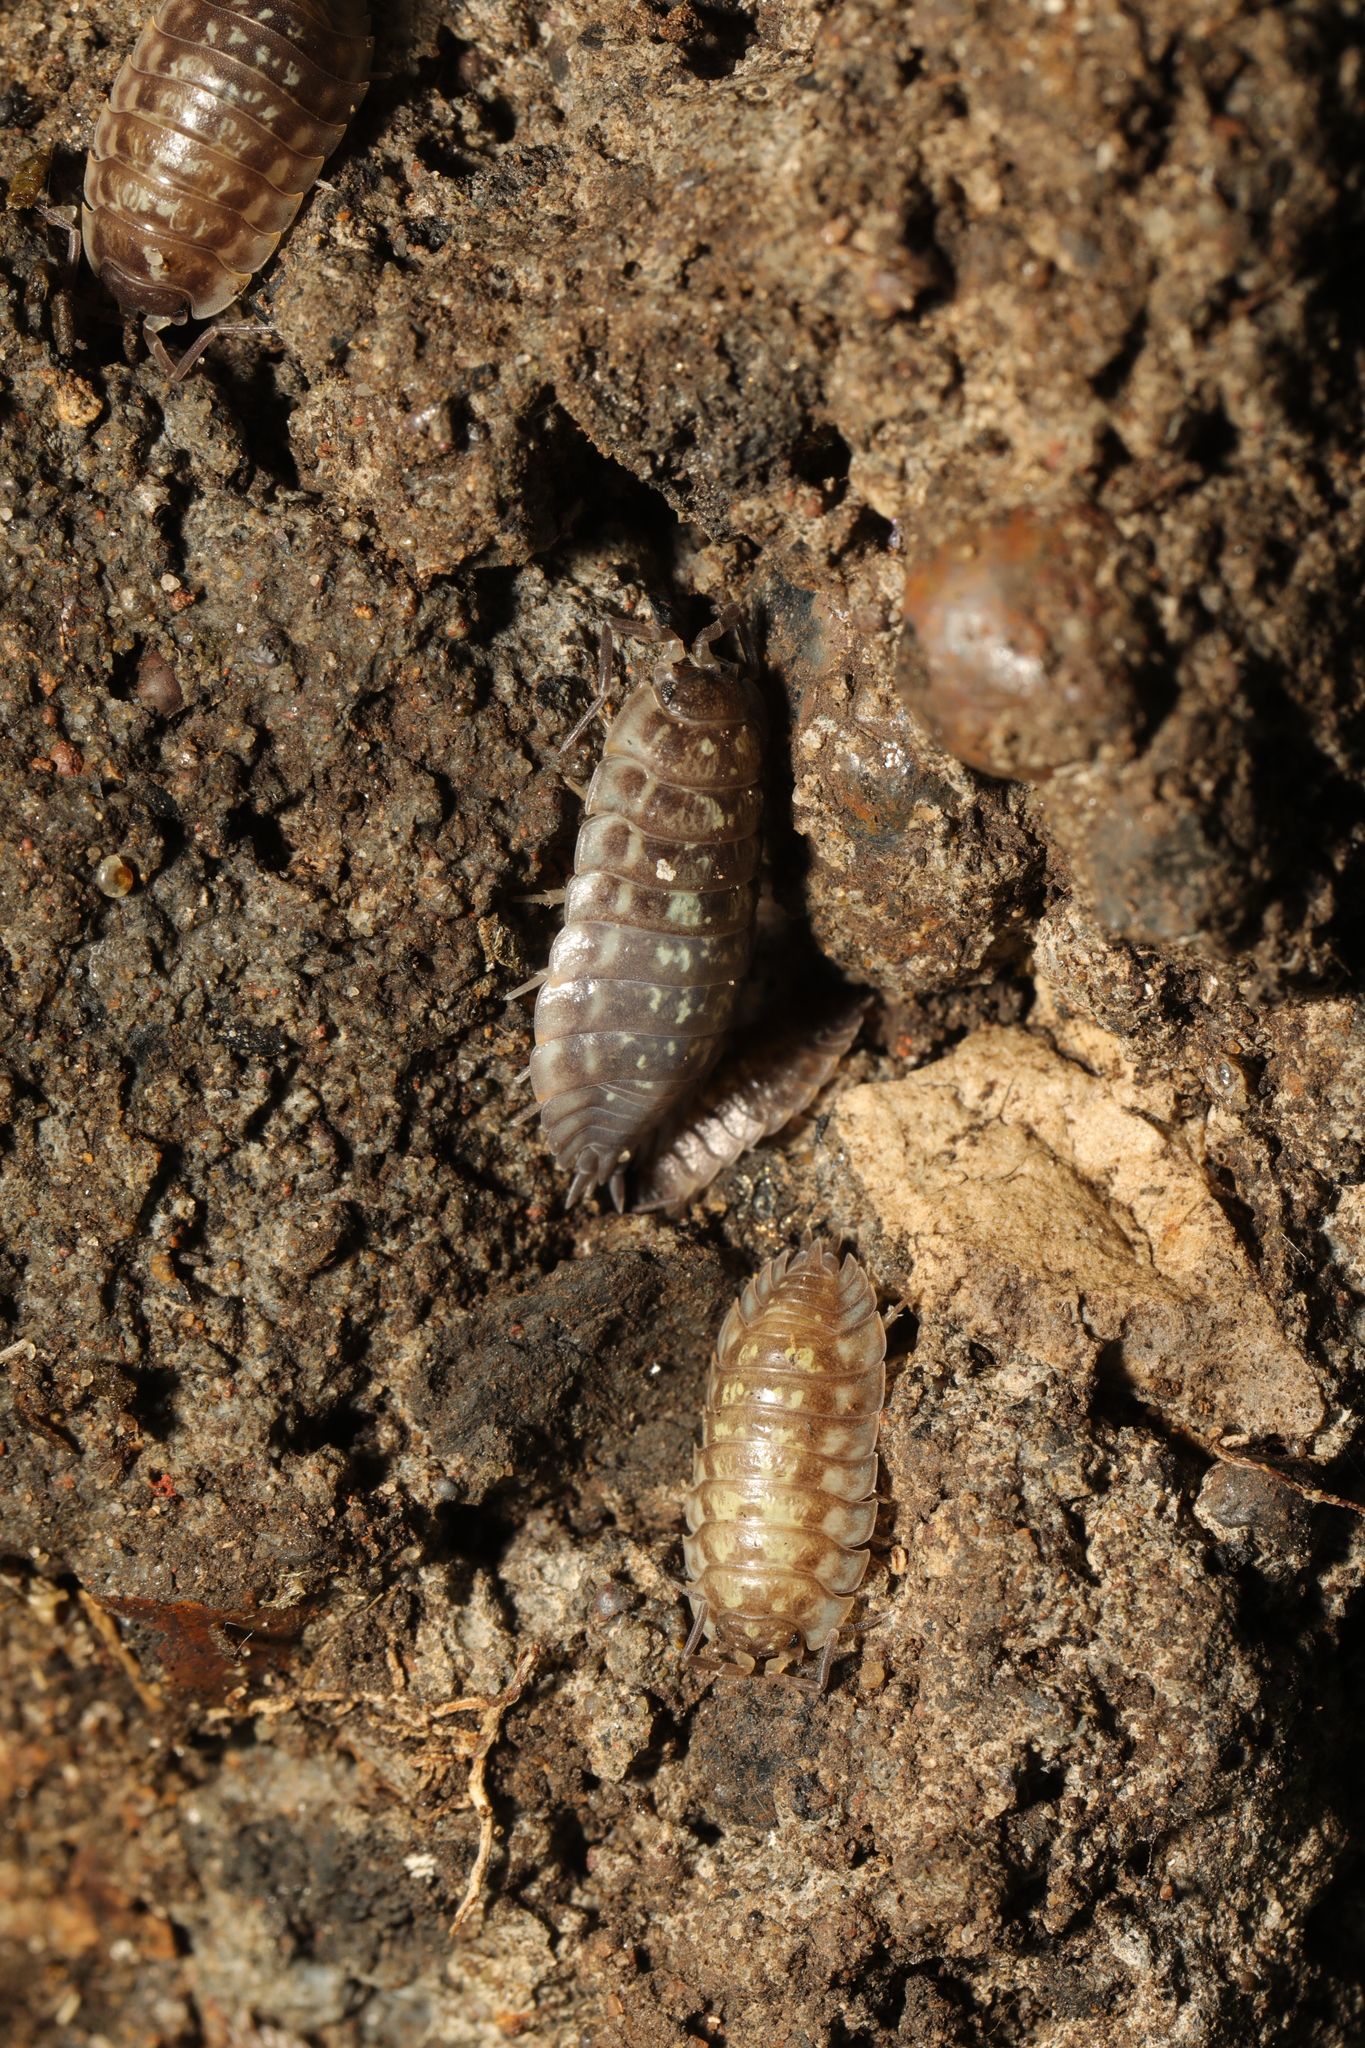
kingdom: Animalia
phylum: Arthropoda
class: Malacostraca
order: Isopoda
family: Oniscidae
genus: Oniscus
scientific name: Oniscus asellus
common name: Common shiny woodlouse
